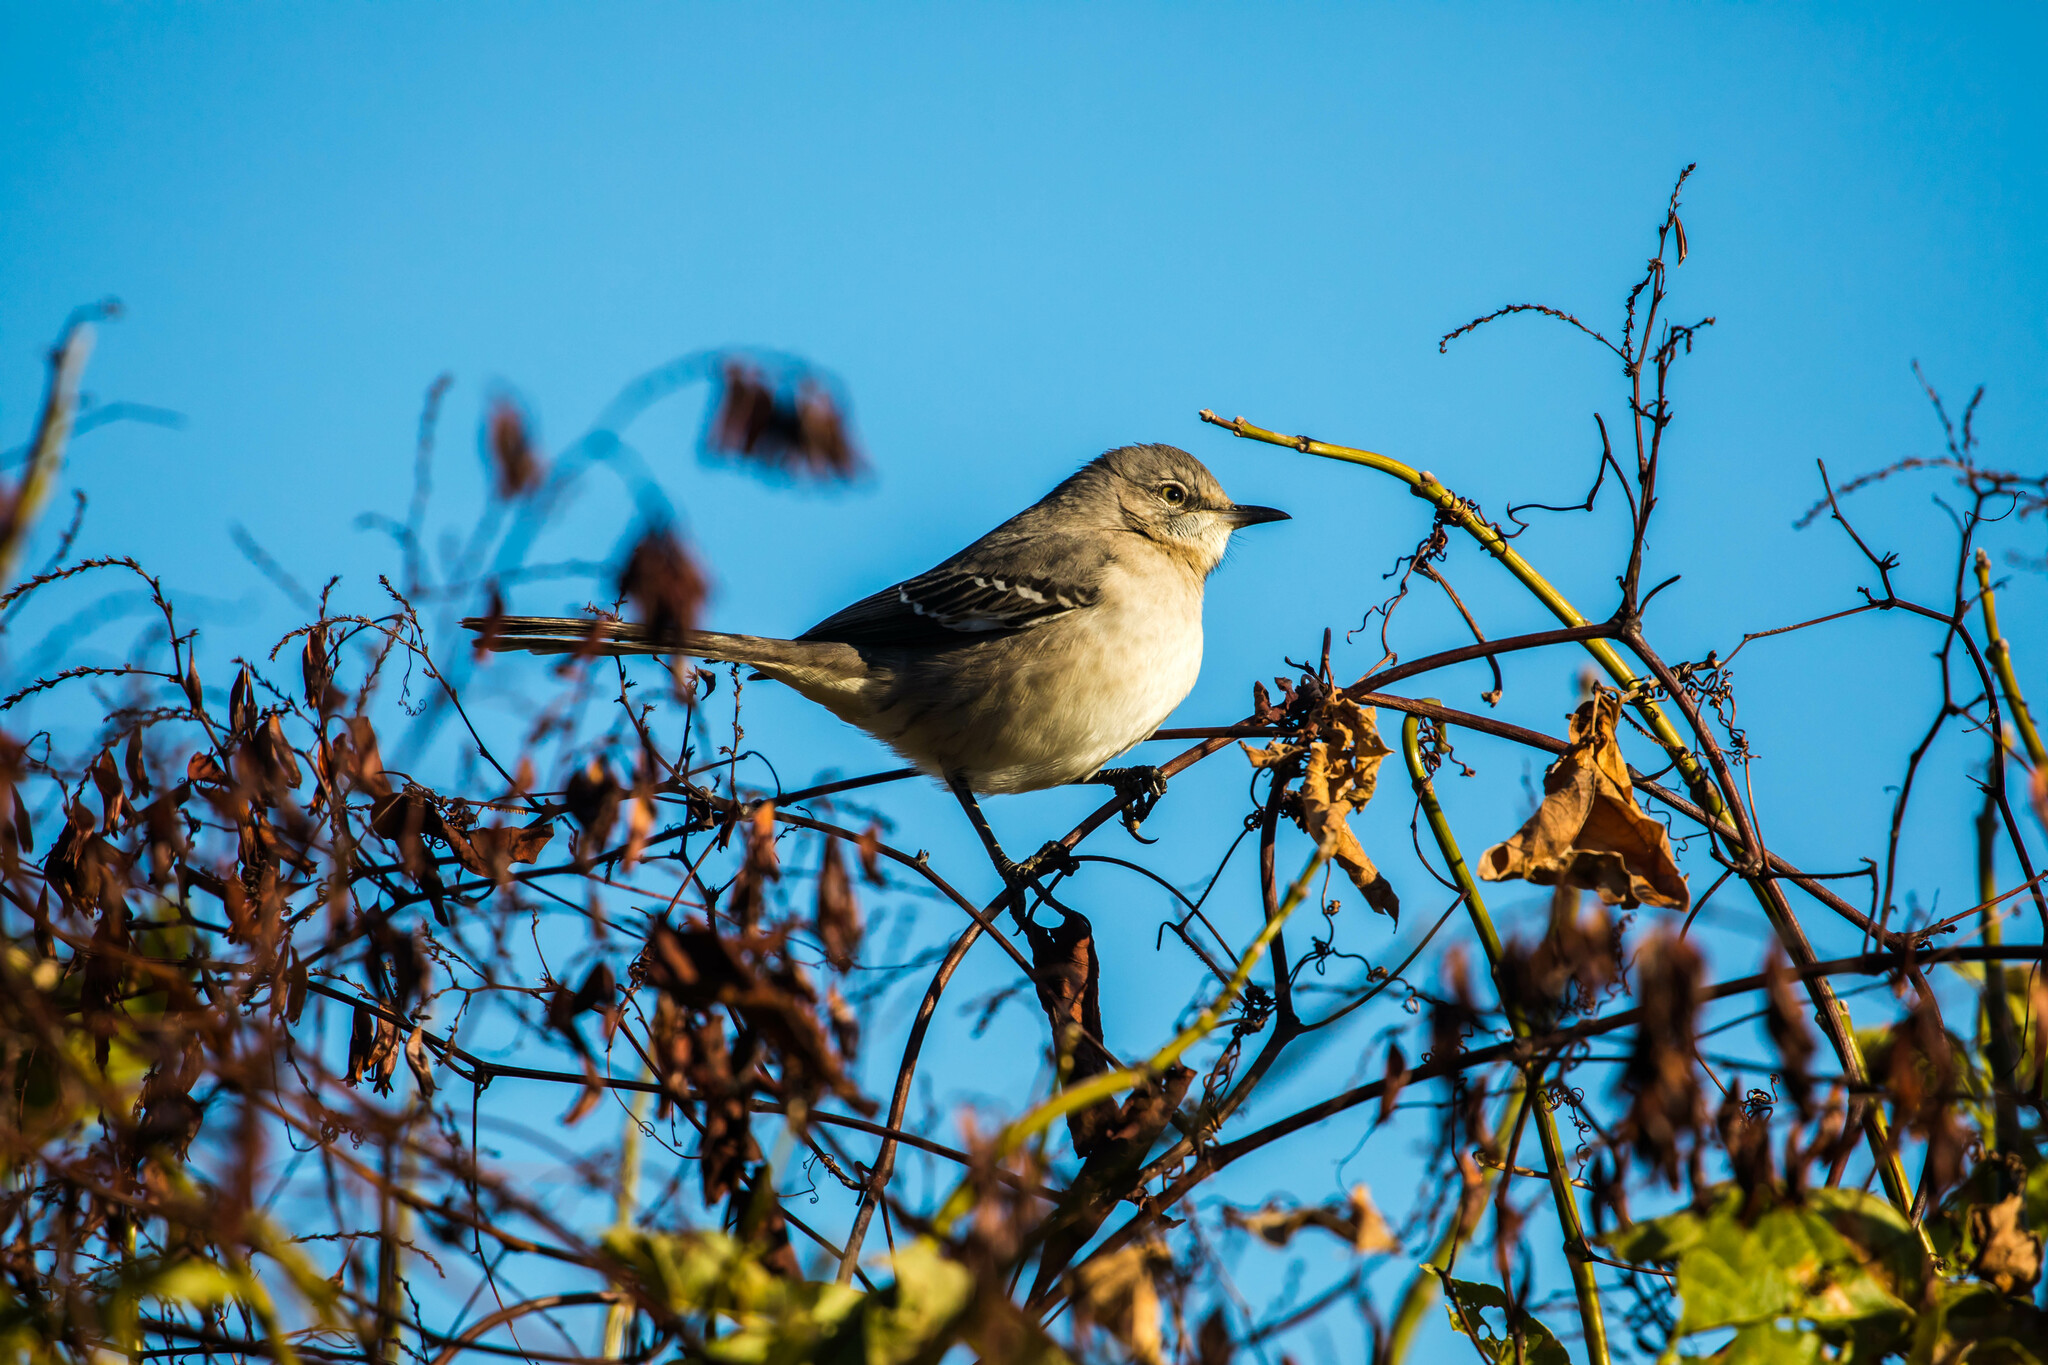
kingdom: Animalia
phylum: Chordata
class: Aves
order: Passeriformes
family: Mimidae
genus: Mimus
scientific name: Mimus polyglottos
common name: Northern mockingbird
